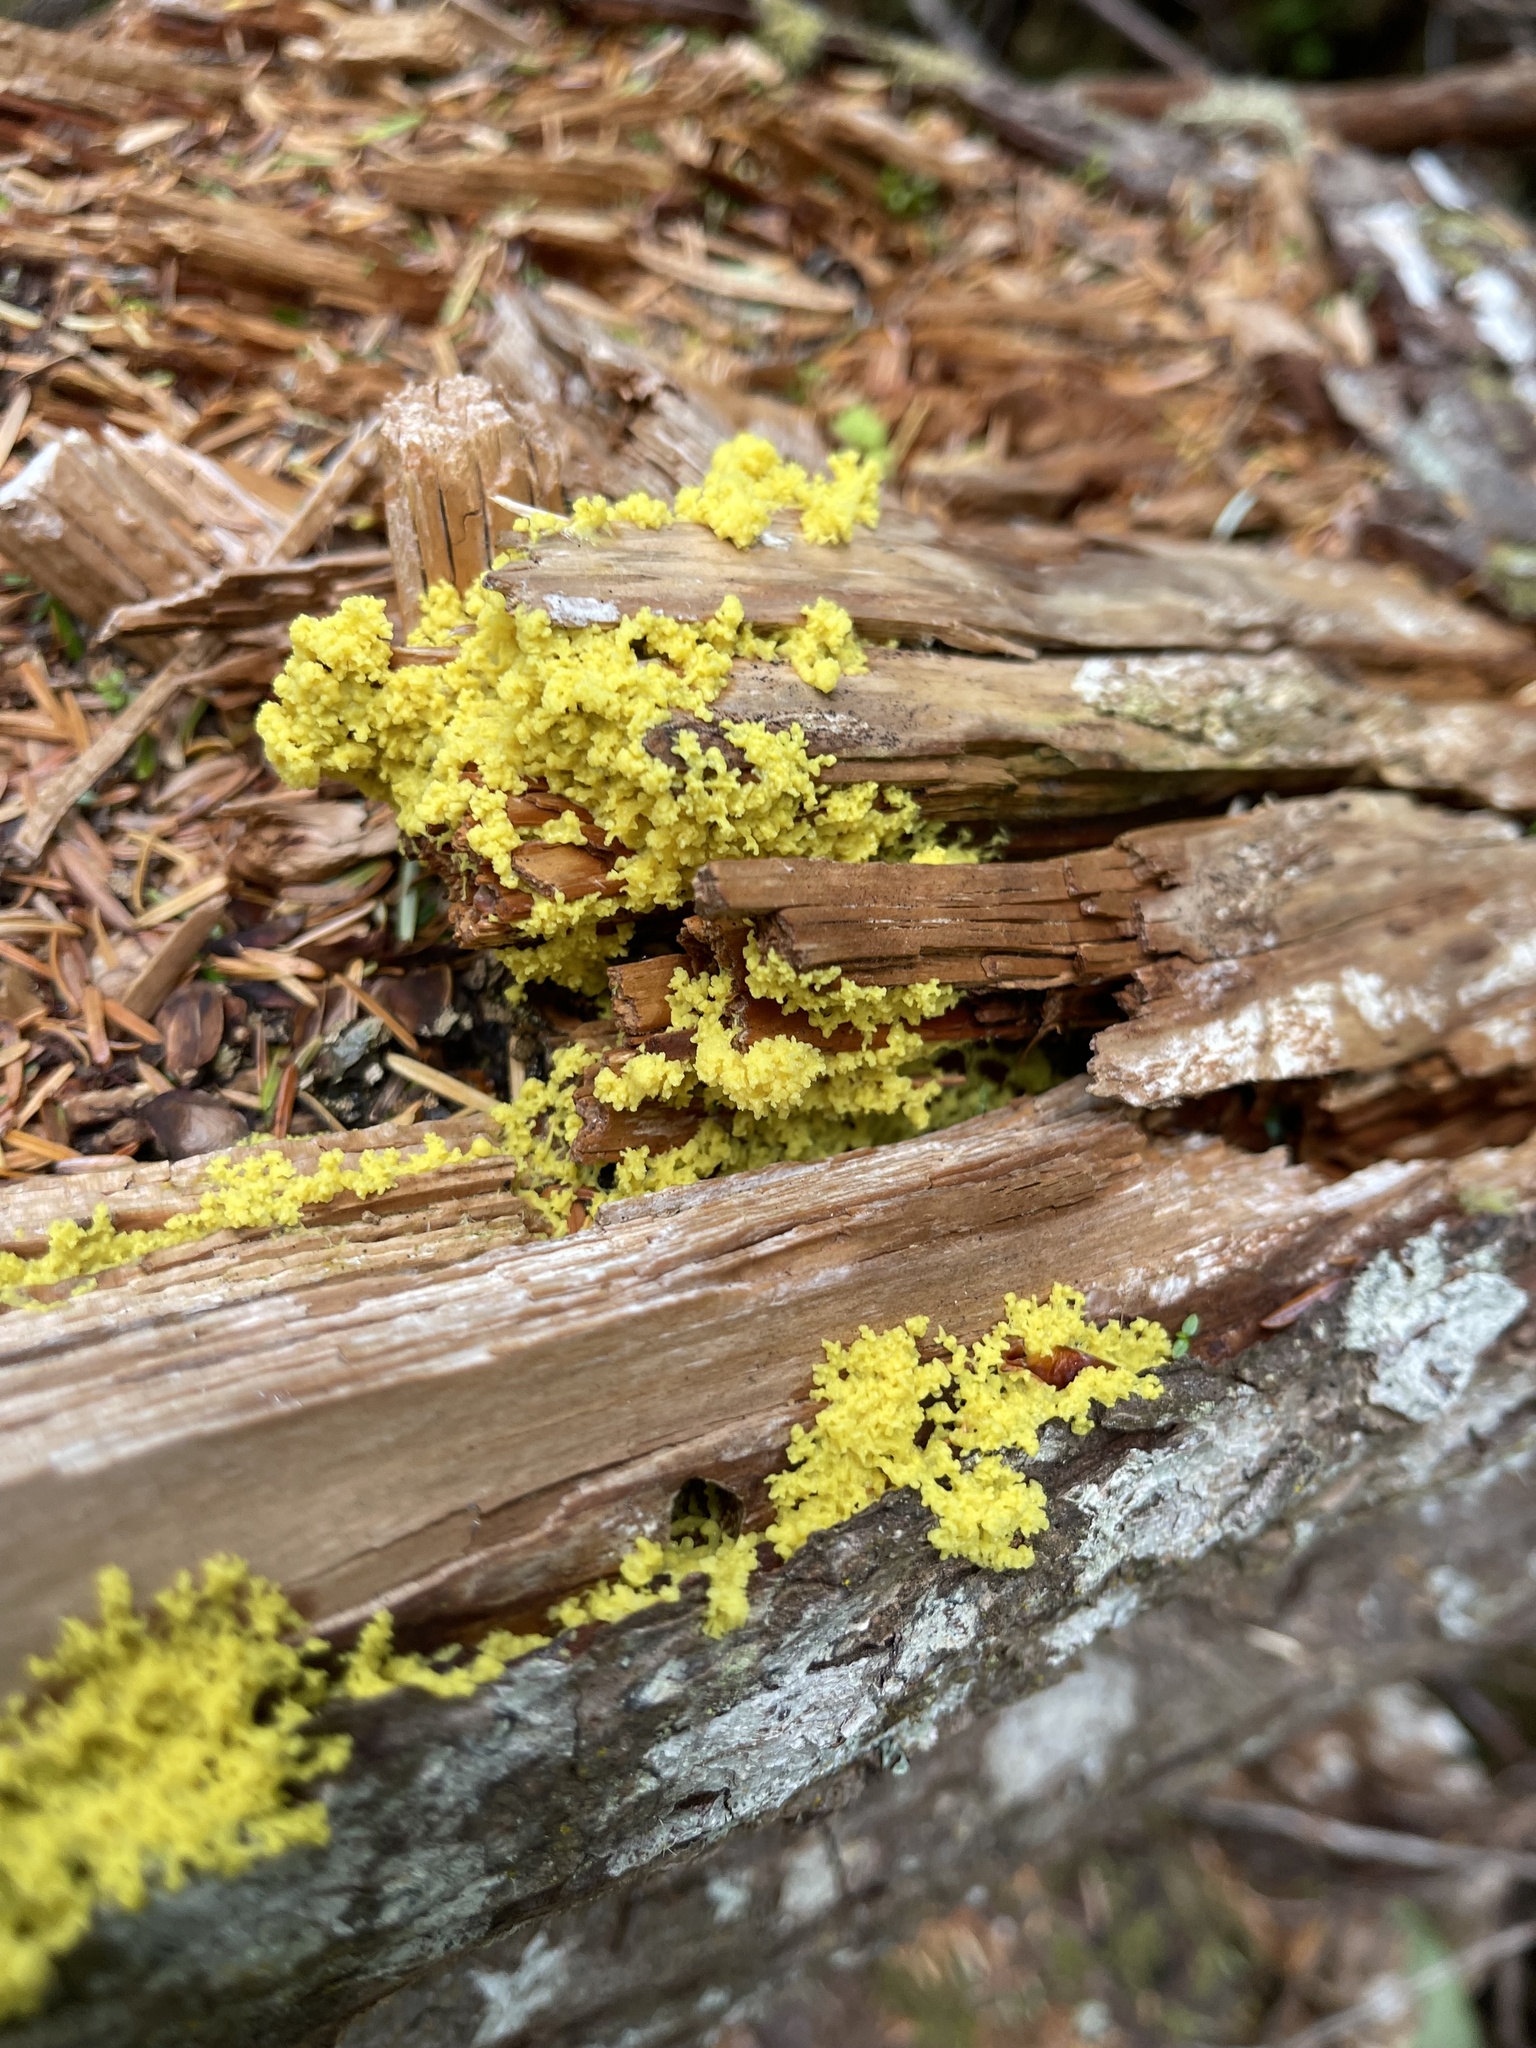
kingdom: Protozoa
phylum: Mycetozoa
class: Myxomycetes
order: Physarales
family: Physaraceae
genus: Fuligo
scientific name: Fuligo septica
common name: Dog vomit slime mold
